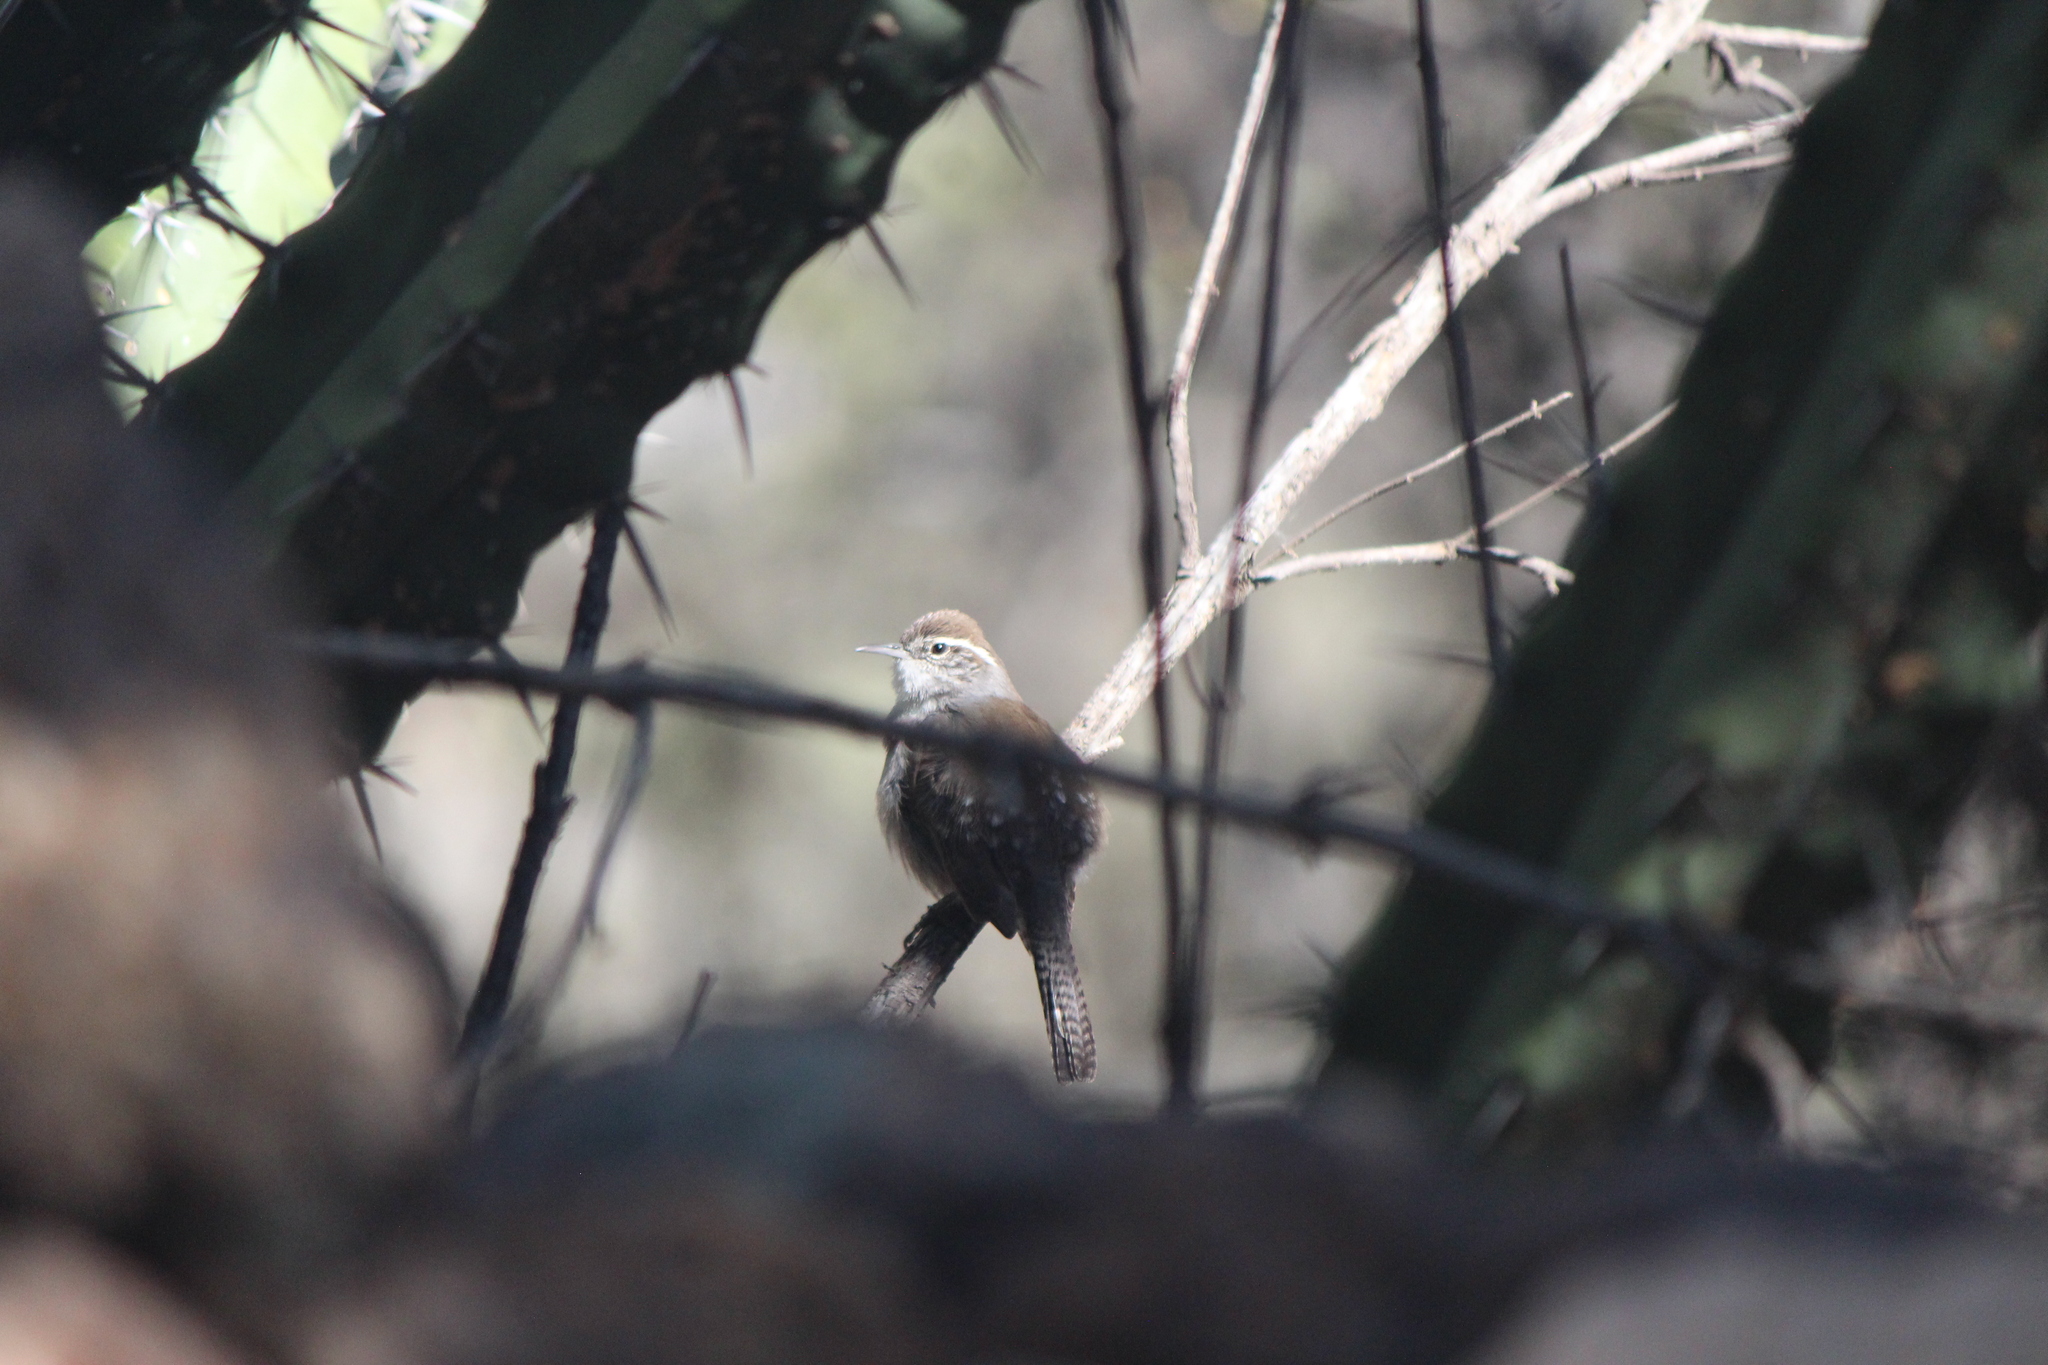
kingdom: Animalia
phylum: Chordata
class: Aves
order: Passeriformes
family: Troglodytidae
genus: Thryomanes
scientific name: Thryomanes bewickii
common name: Bewick's wren
